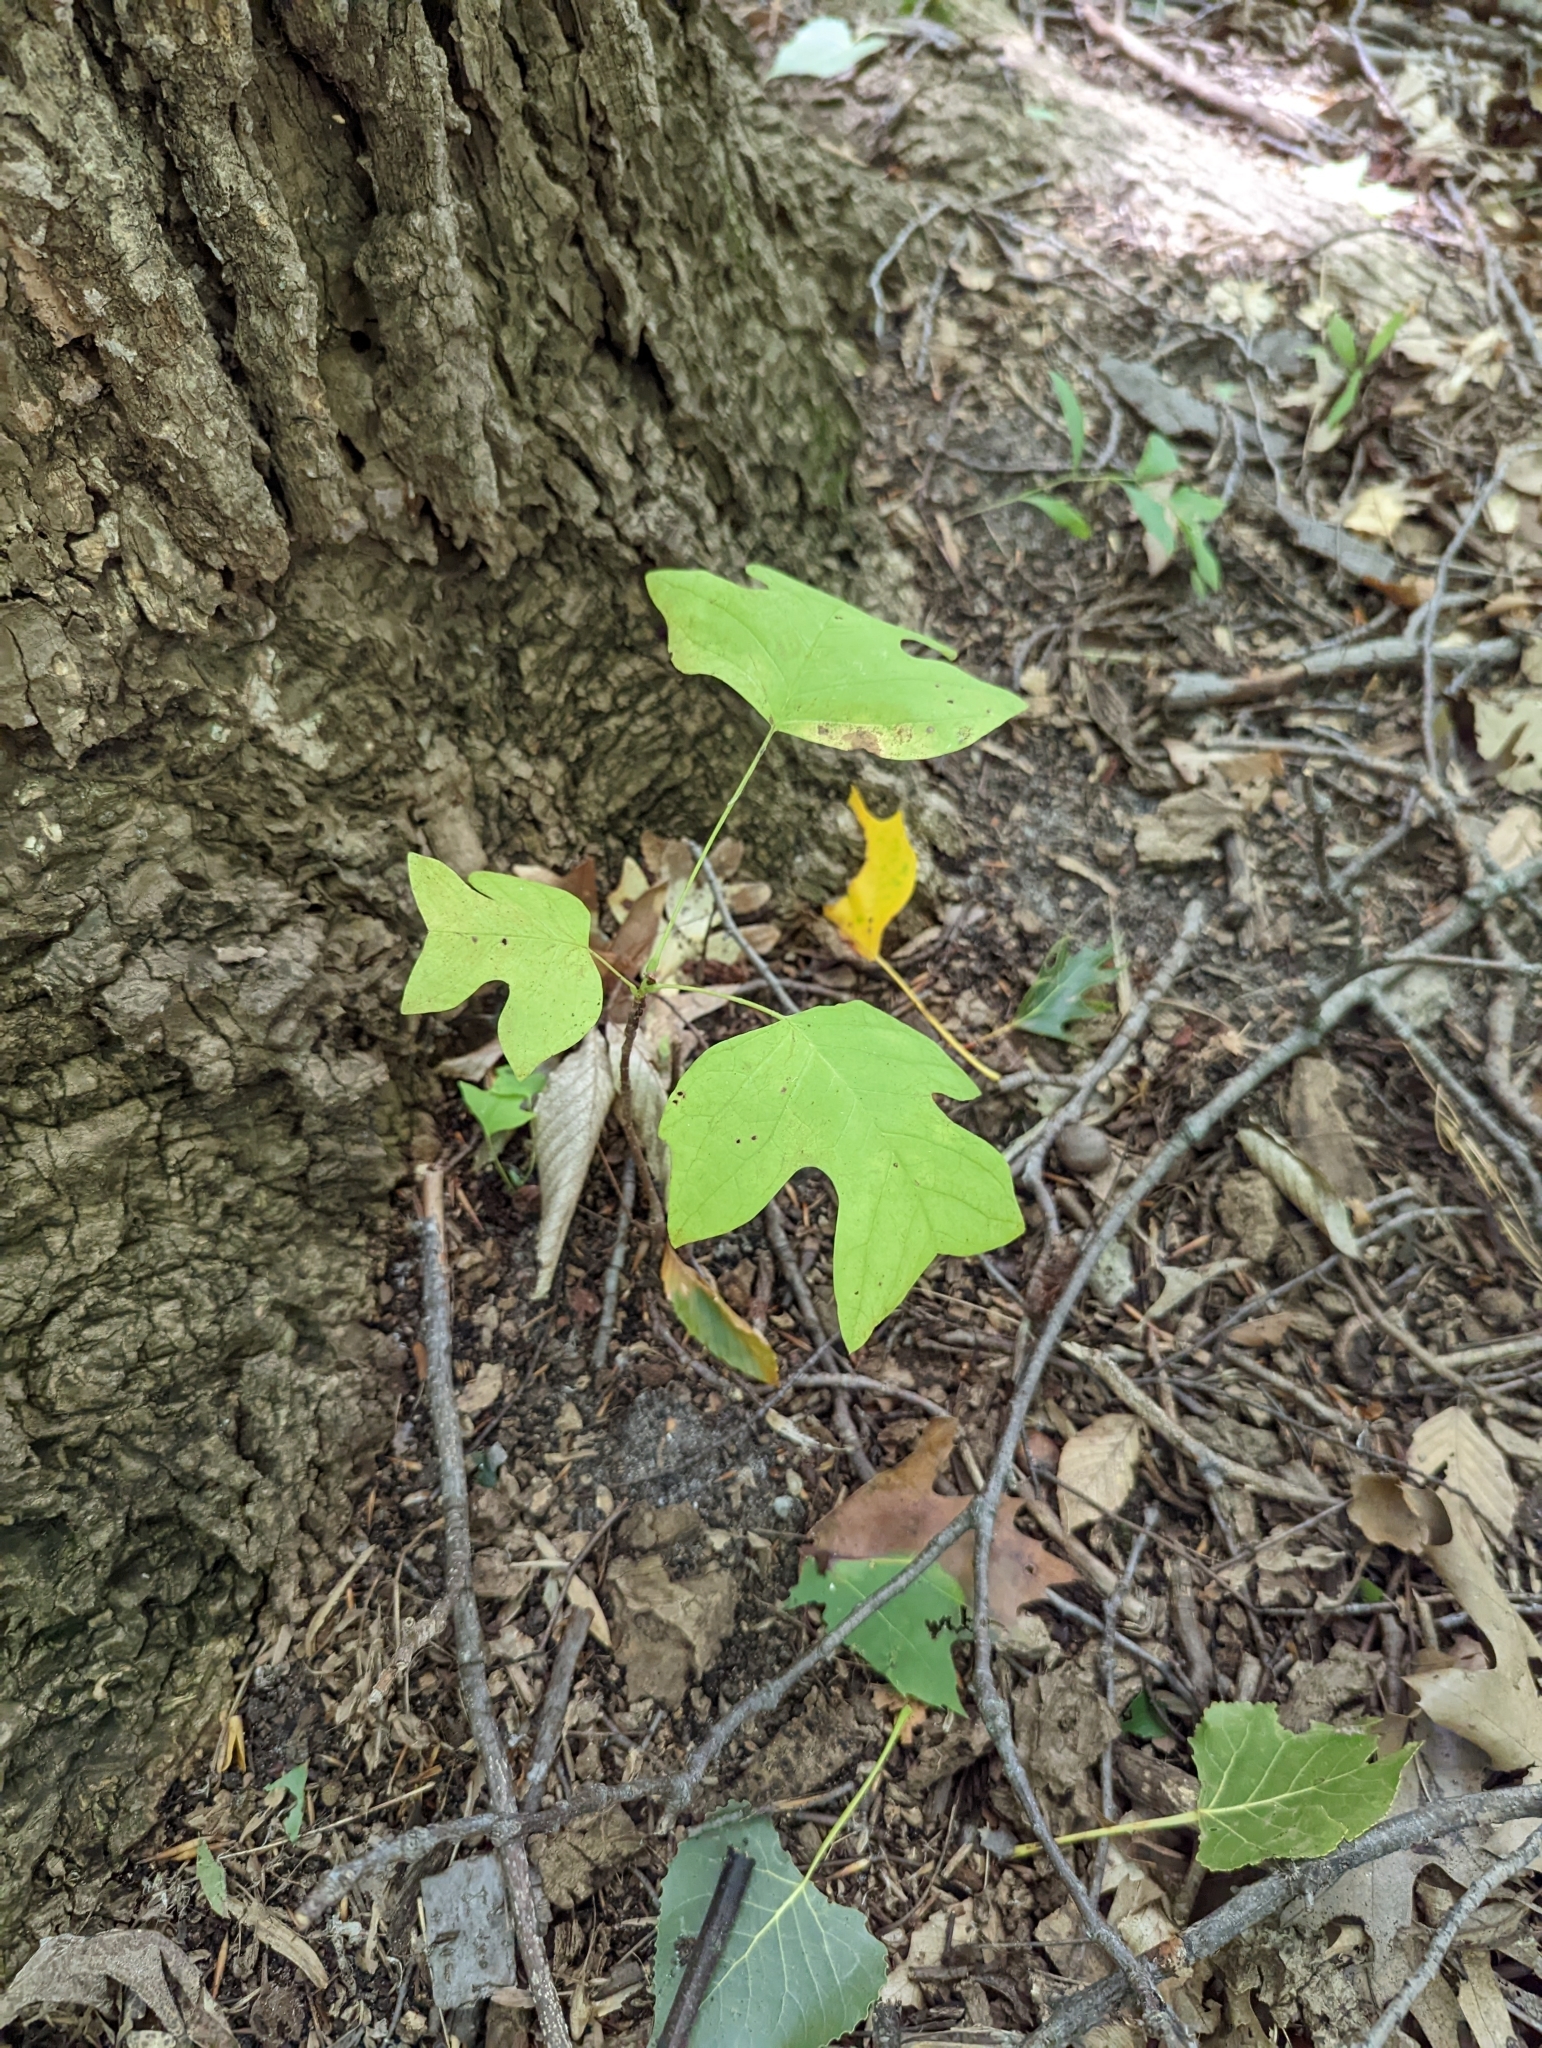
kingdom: Plantae
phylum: Tracheophyta
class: Magnoliopsida
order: Magnoliales
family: Magnoliaceae
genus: Liriodendron
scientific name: Liriodendron tulipifera
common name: Tulip tree
